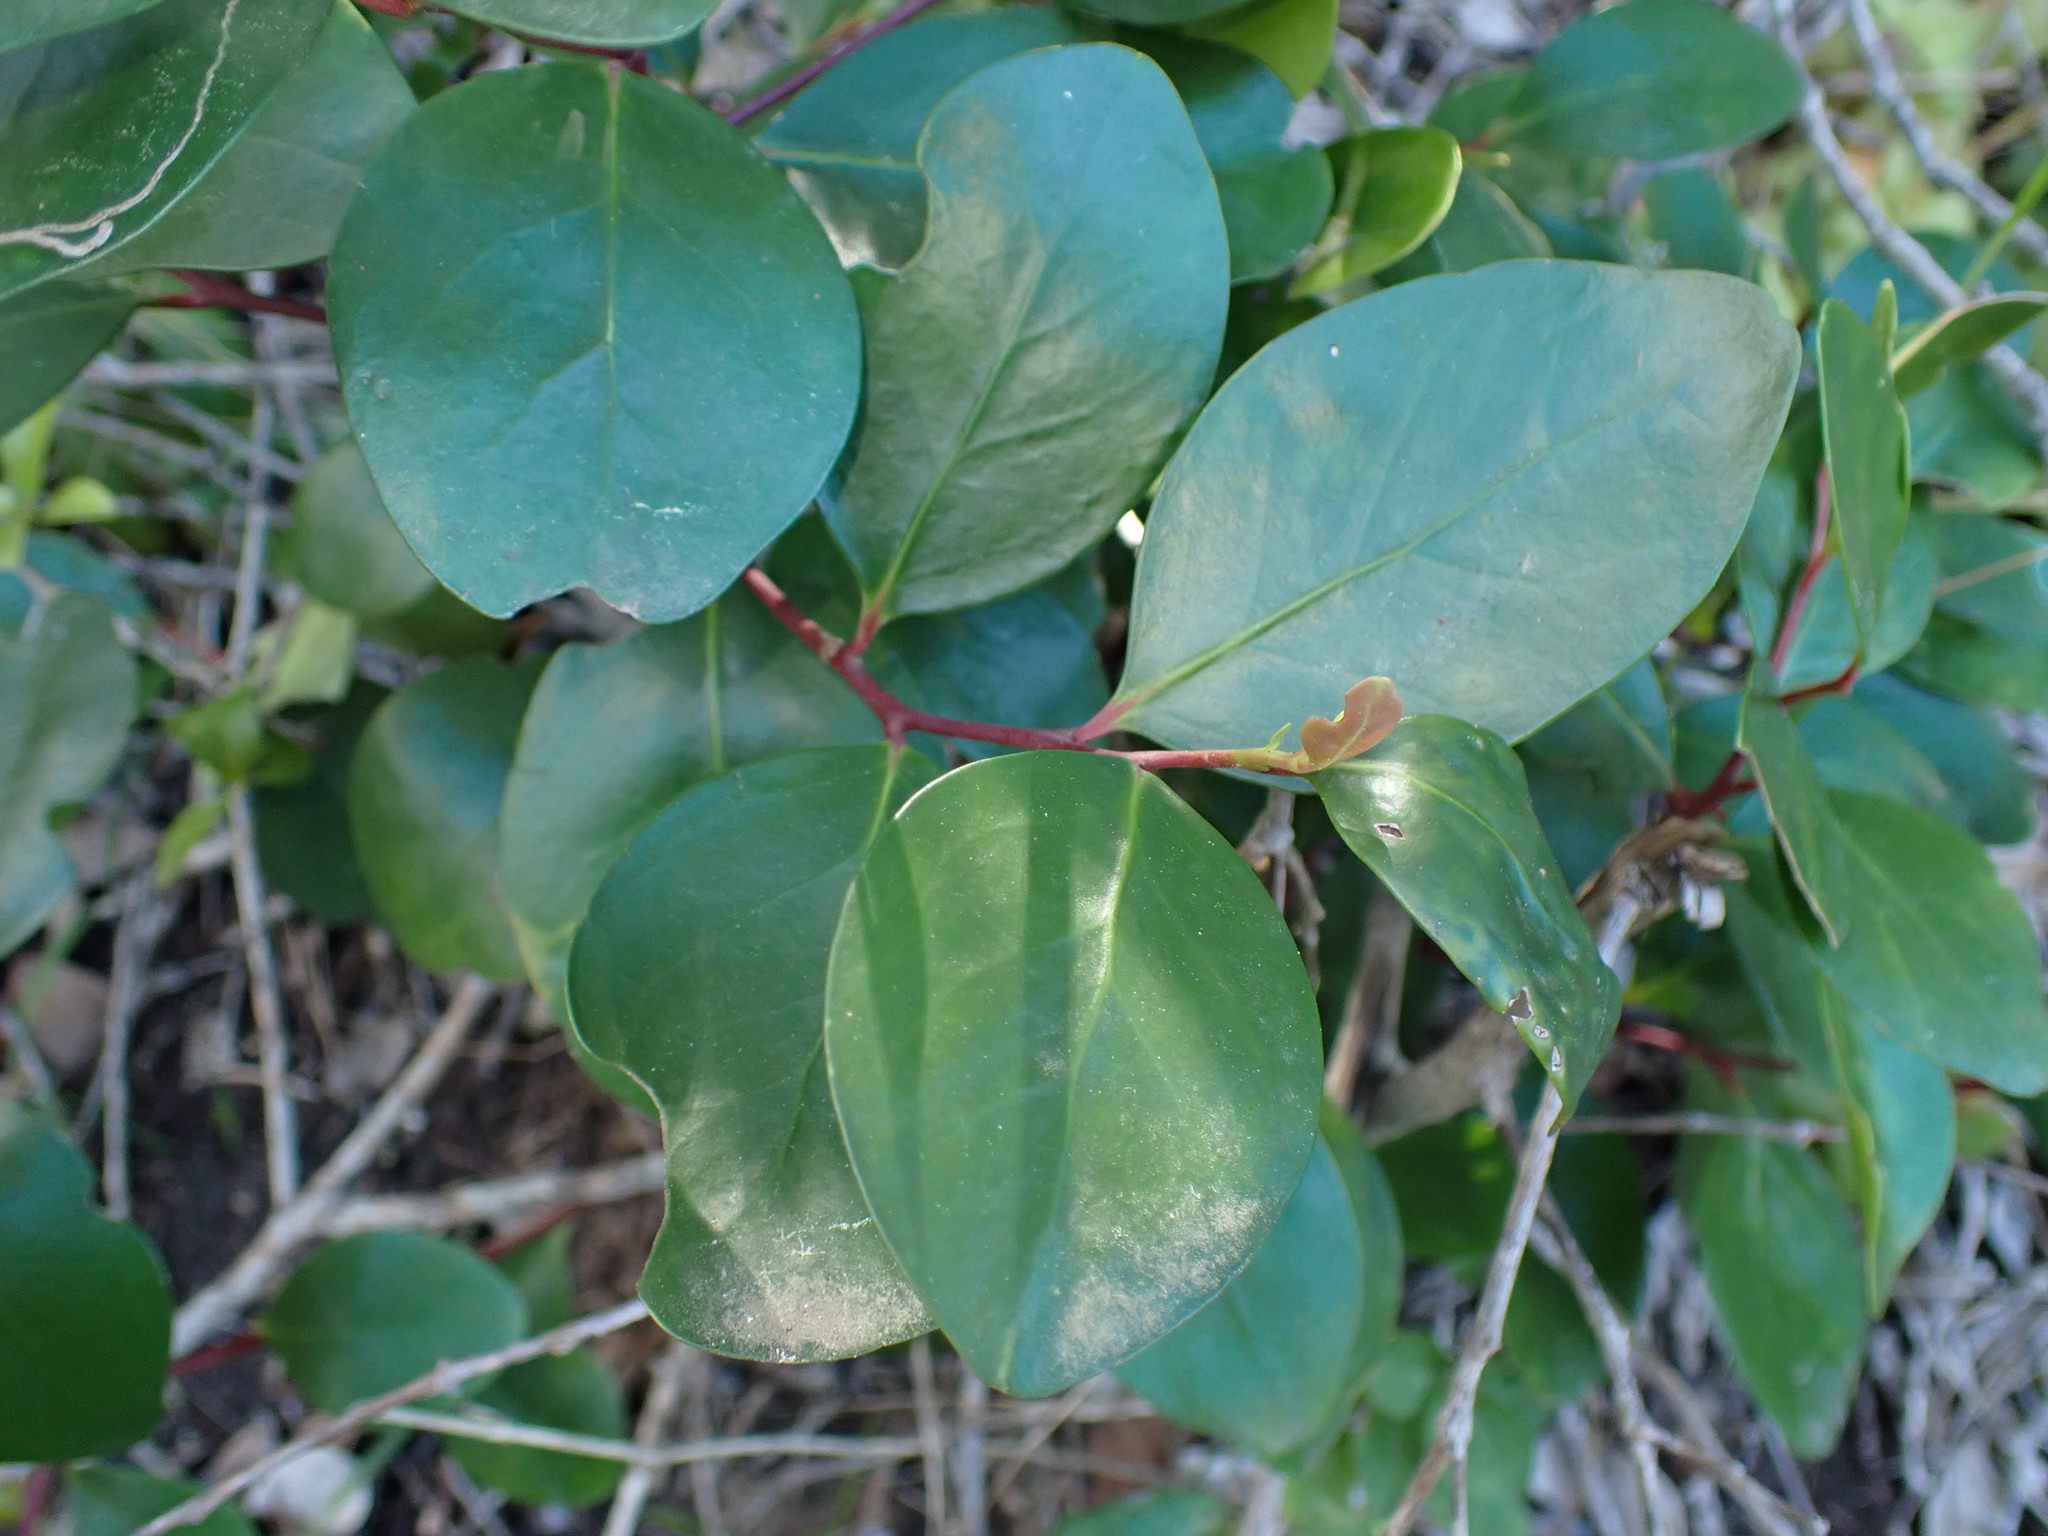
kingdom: Plantae
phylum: Tracheophyta
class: Magnoliopsida
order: Celastrales
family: Celastraceae
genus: Pterocelastrus
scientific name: Pterocelastrus tricuspidatus
